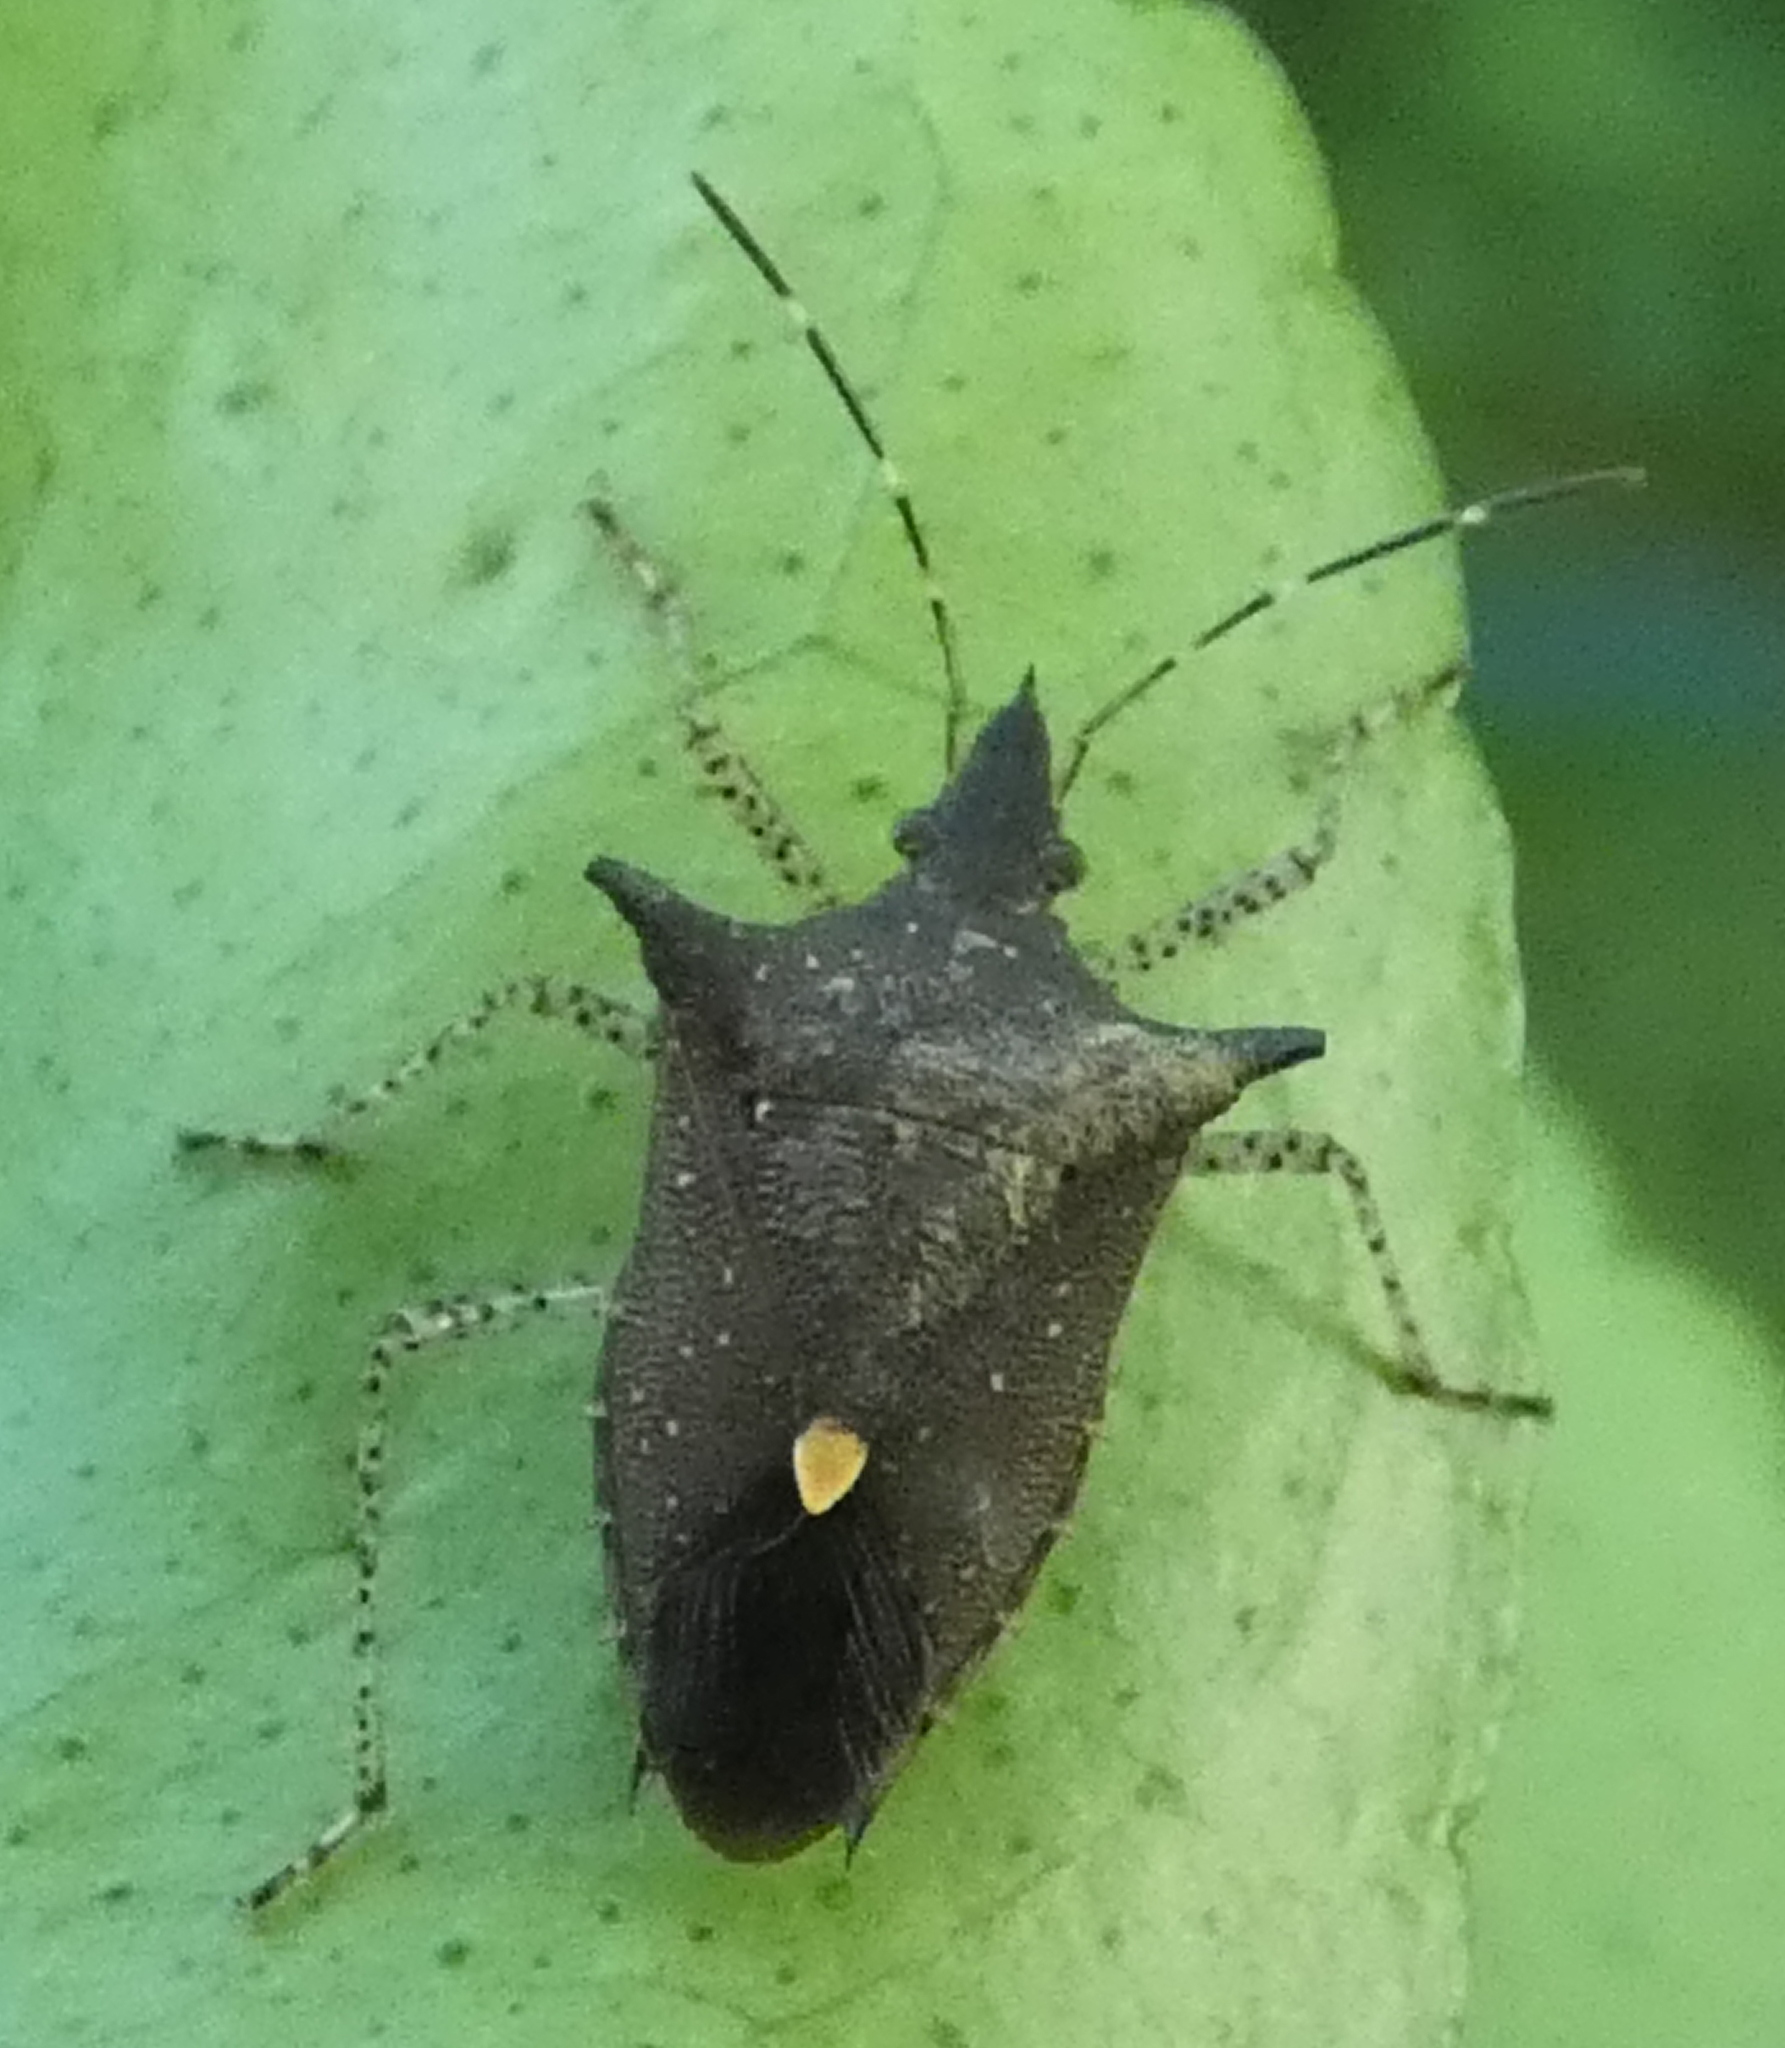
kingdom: Animalia
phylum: Arthropoda
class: Insecta
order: Hemiptera
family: Pentatomidae
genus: Proxys
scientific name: Proxys albopunctulatus
